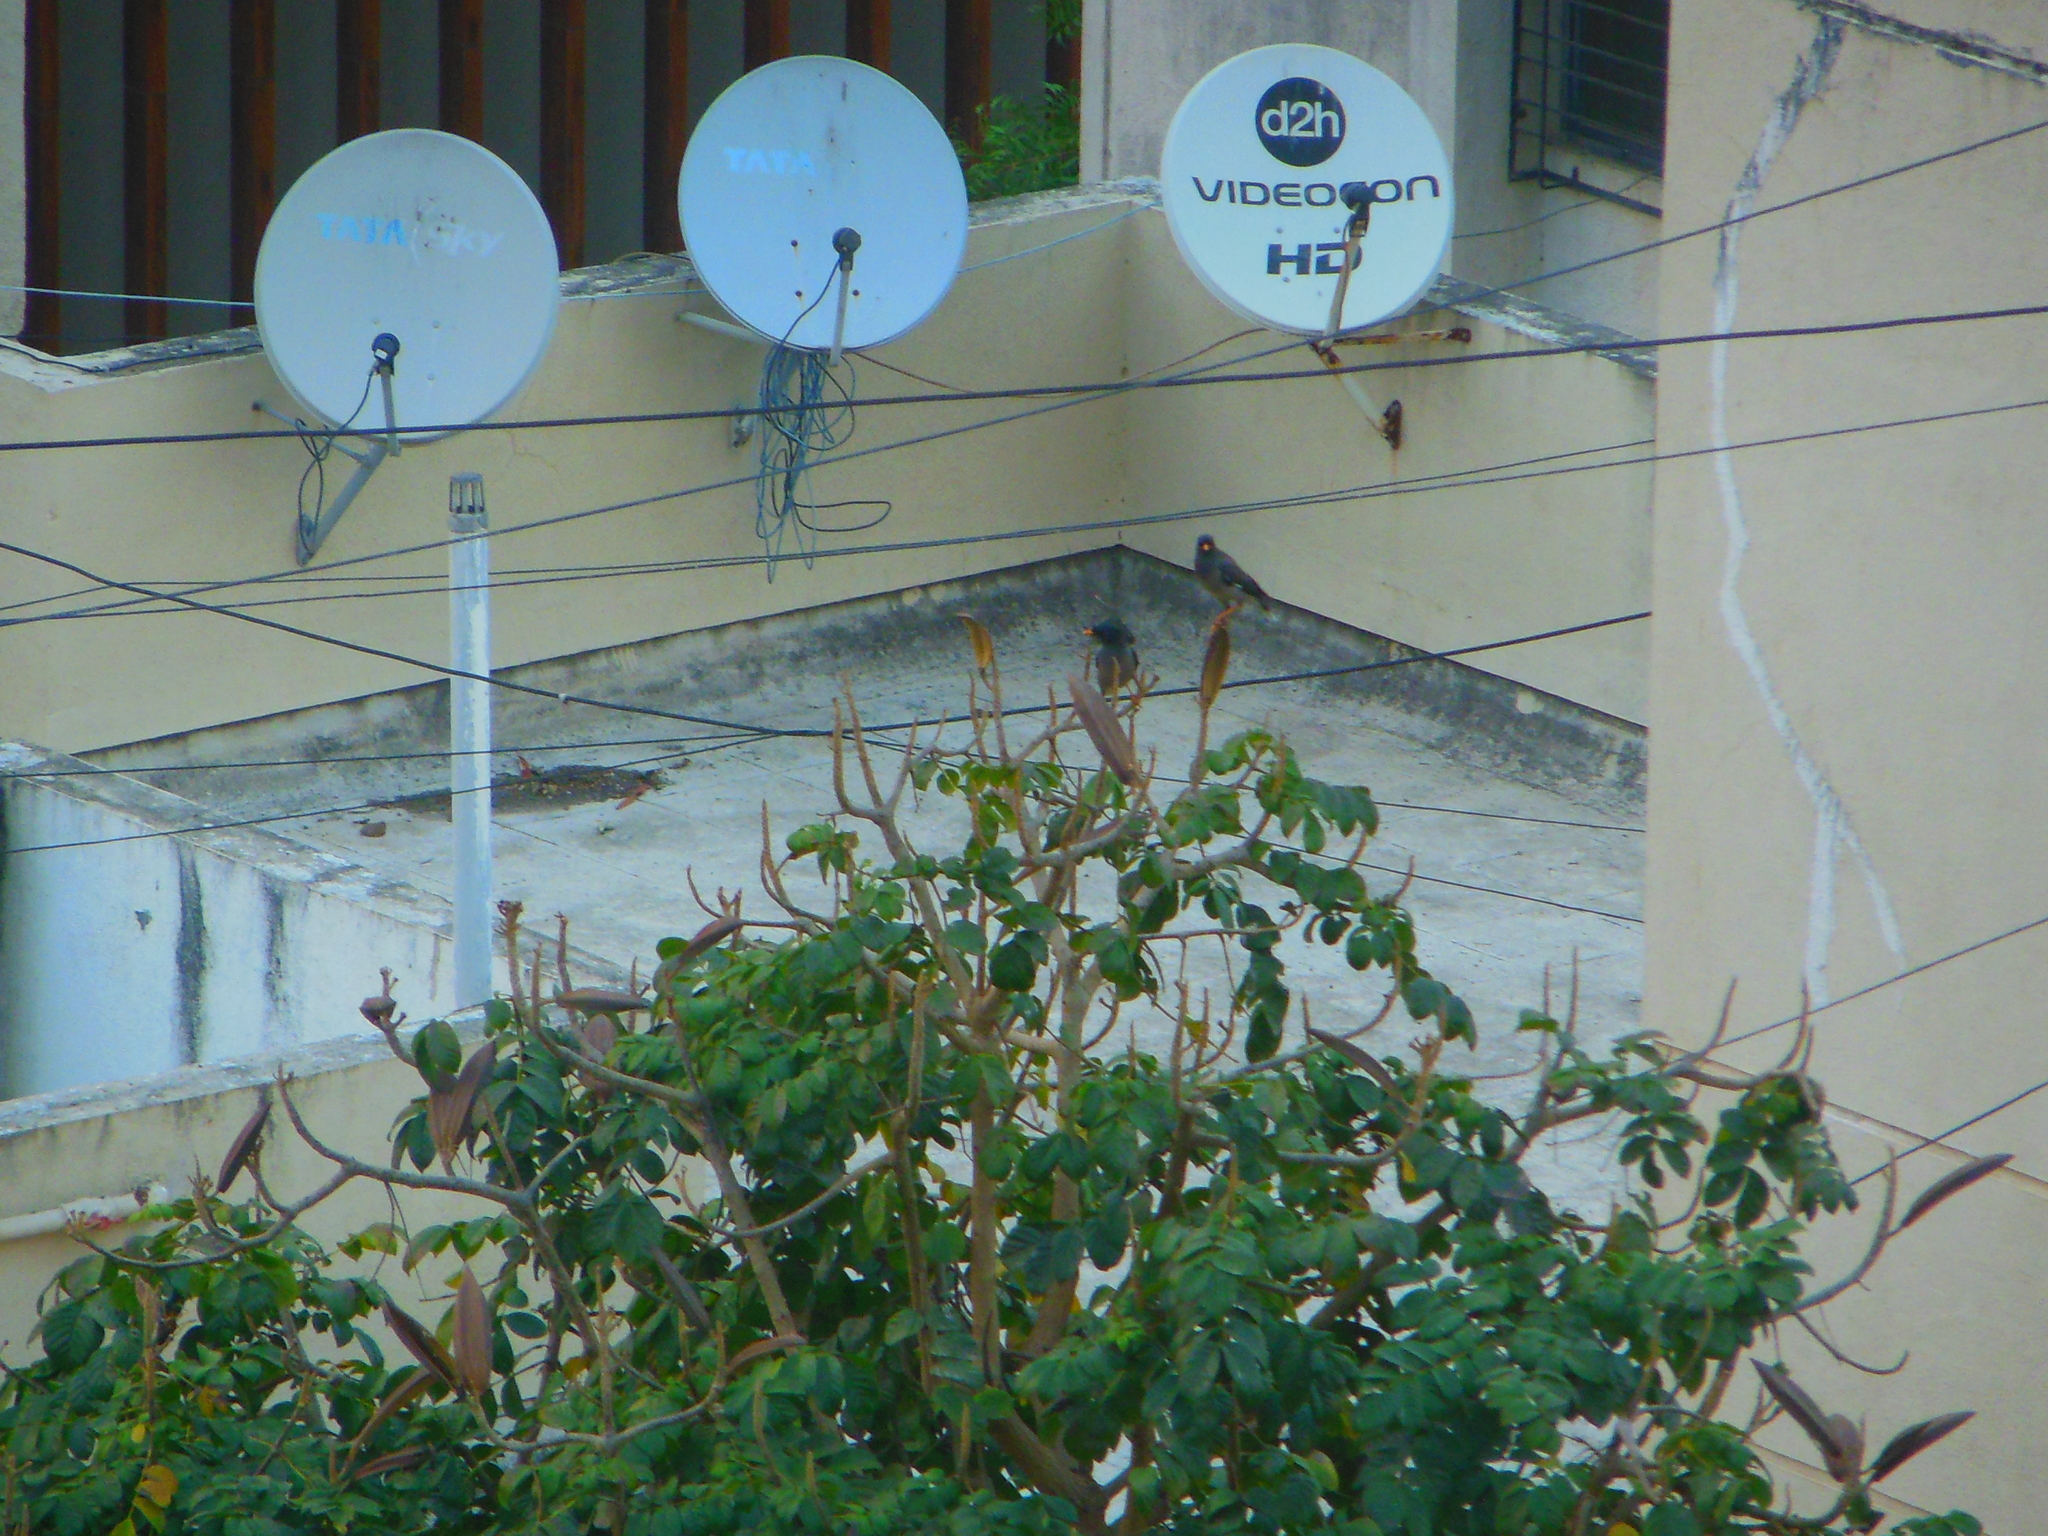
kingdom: Animalia
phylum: Chordata
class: Aves
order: Passeriformes
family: Sturnidae
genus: Acridotheres
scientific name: Acridotheres fuscus
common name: Jungle myna
